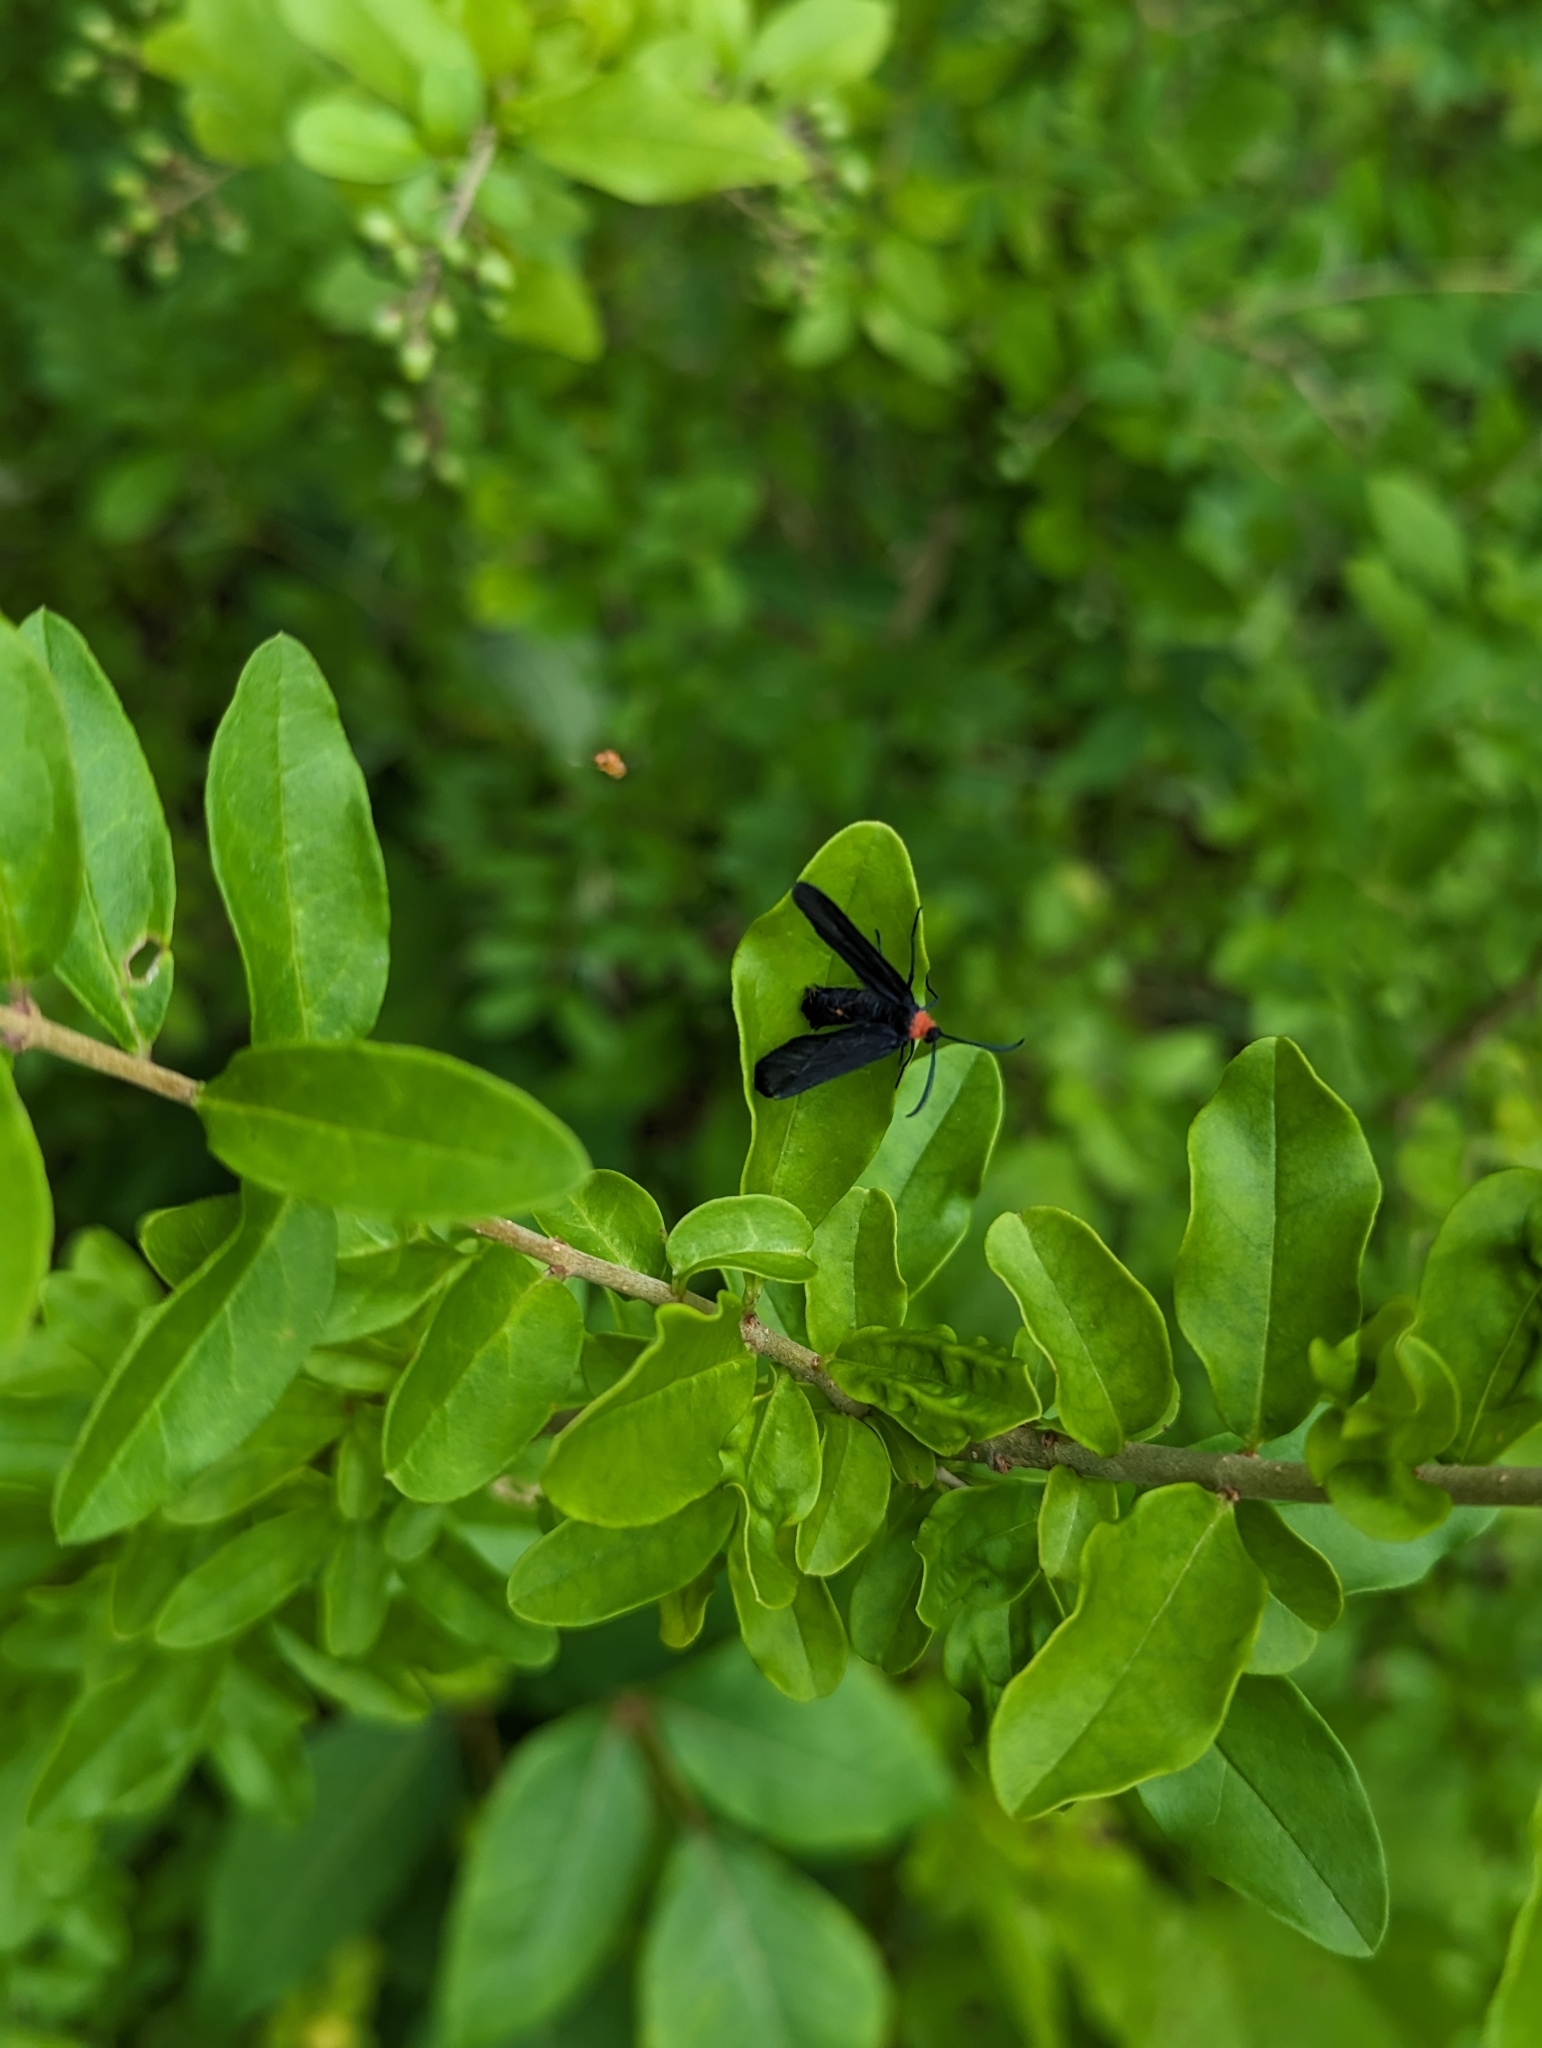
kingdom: Animalia
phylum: Arthropoda
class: Insecta
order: Lepidoptera
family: Zygaenidae
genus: Harrisina
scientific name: Harrisina americana
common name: Grapeleaf skeletonizer moth
